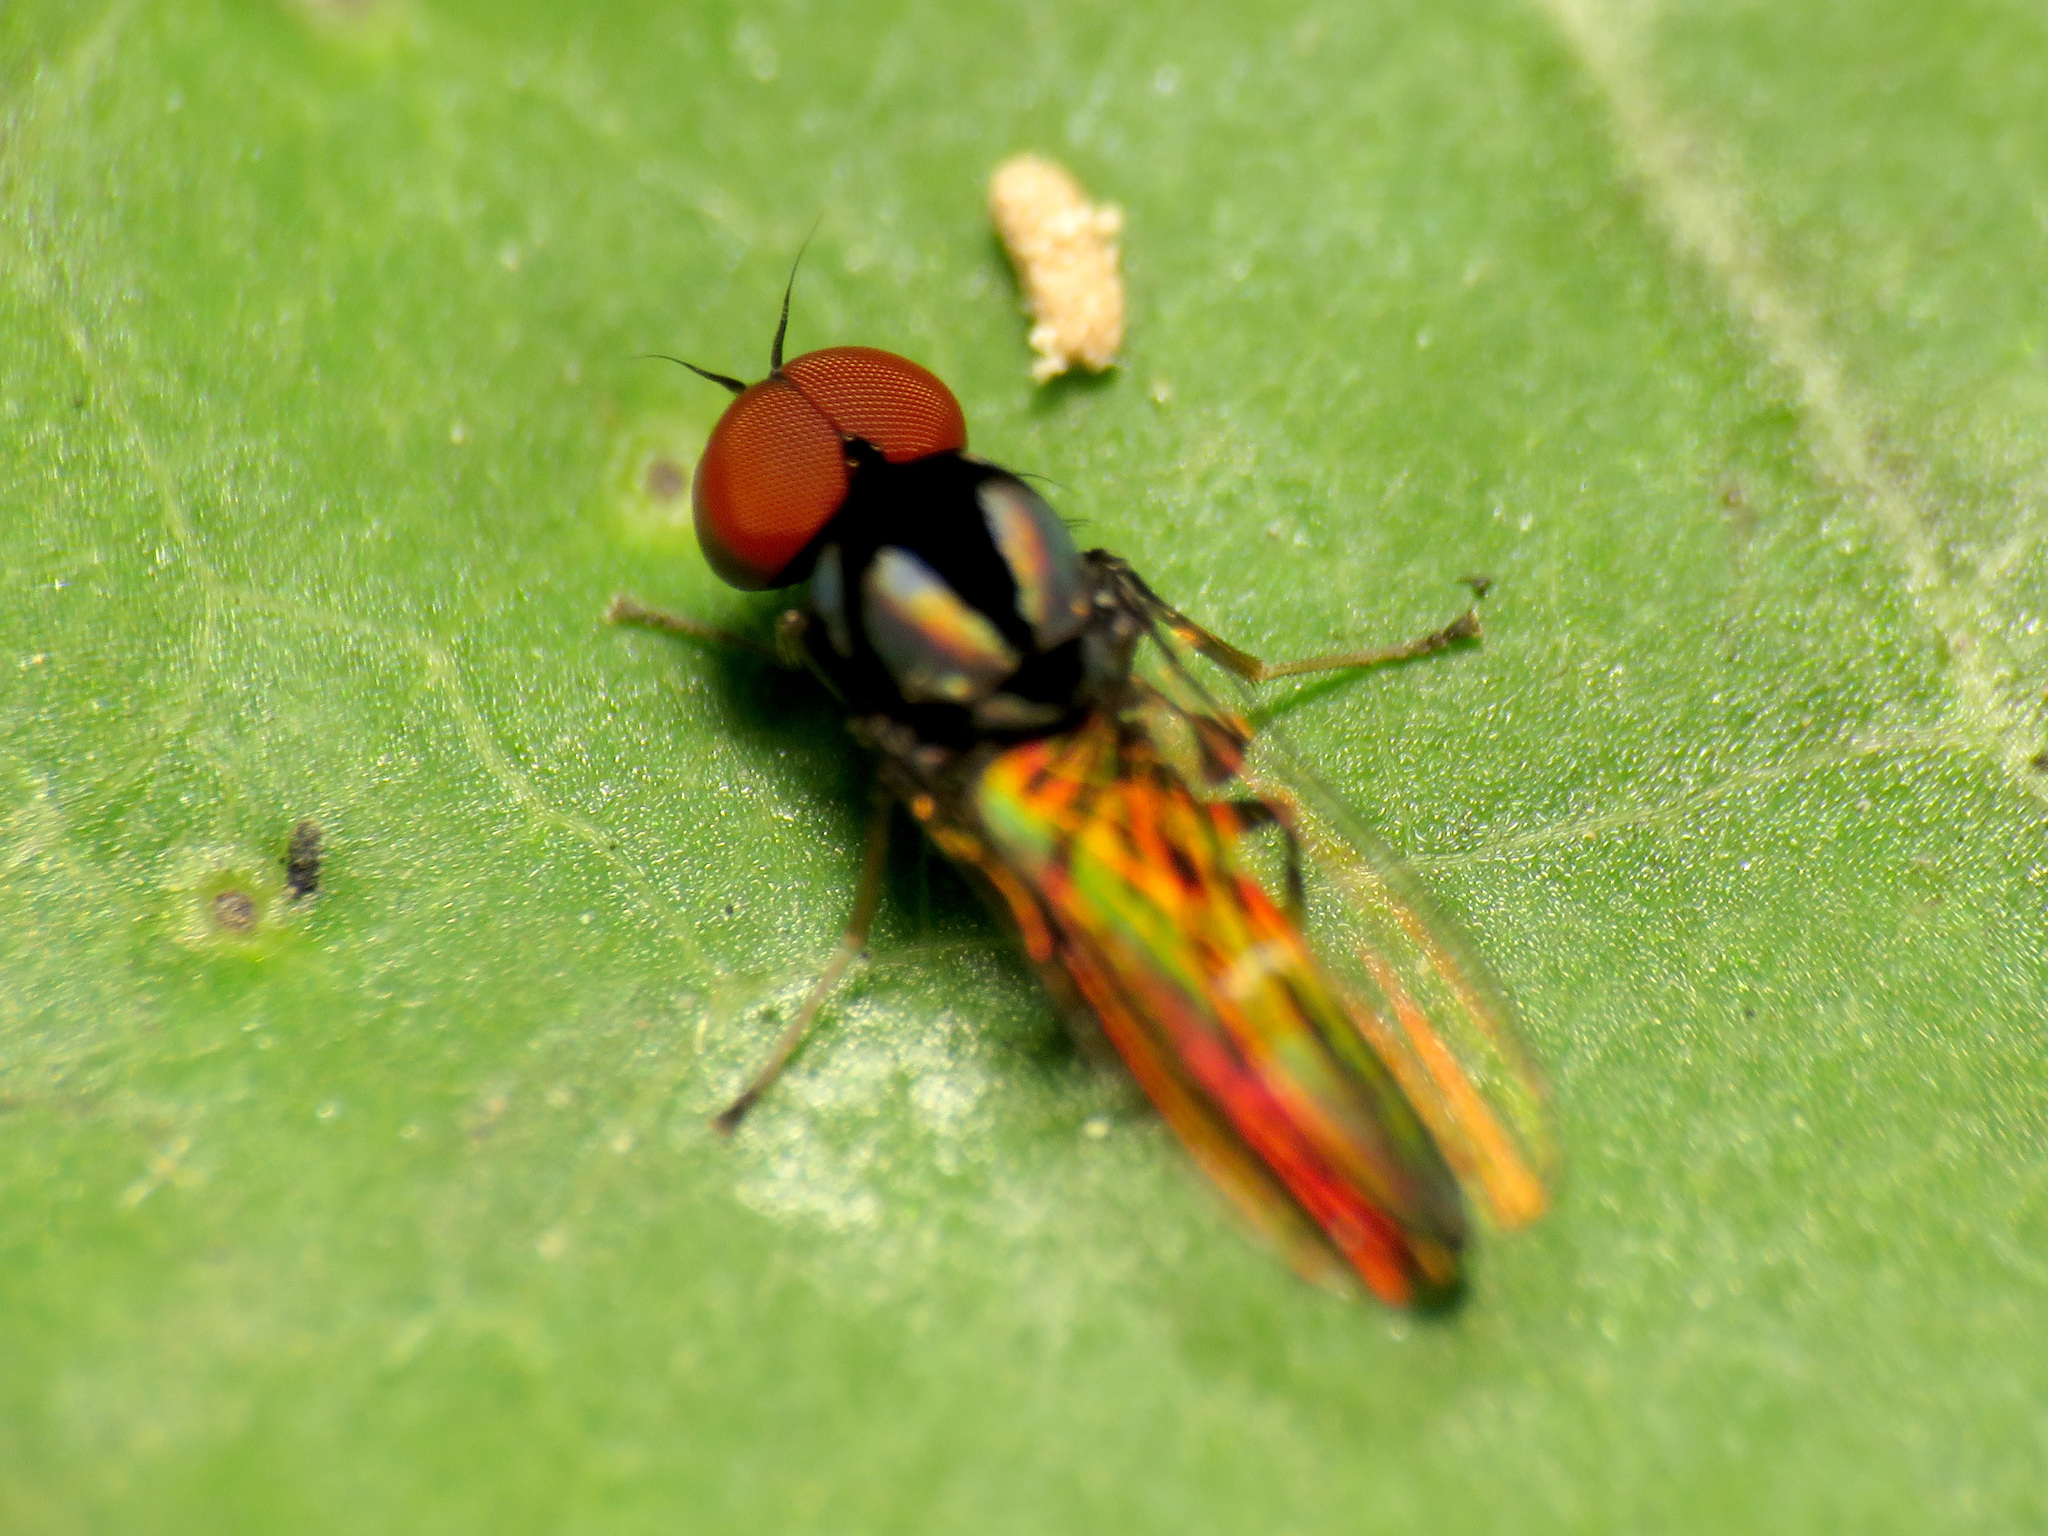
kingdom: Animalia
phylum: Arthropoda
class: Insecta
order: Diptera
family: Platypezidae
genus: Bertamyia
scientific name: Bertamyia notata
